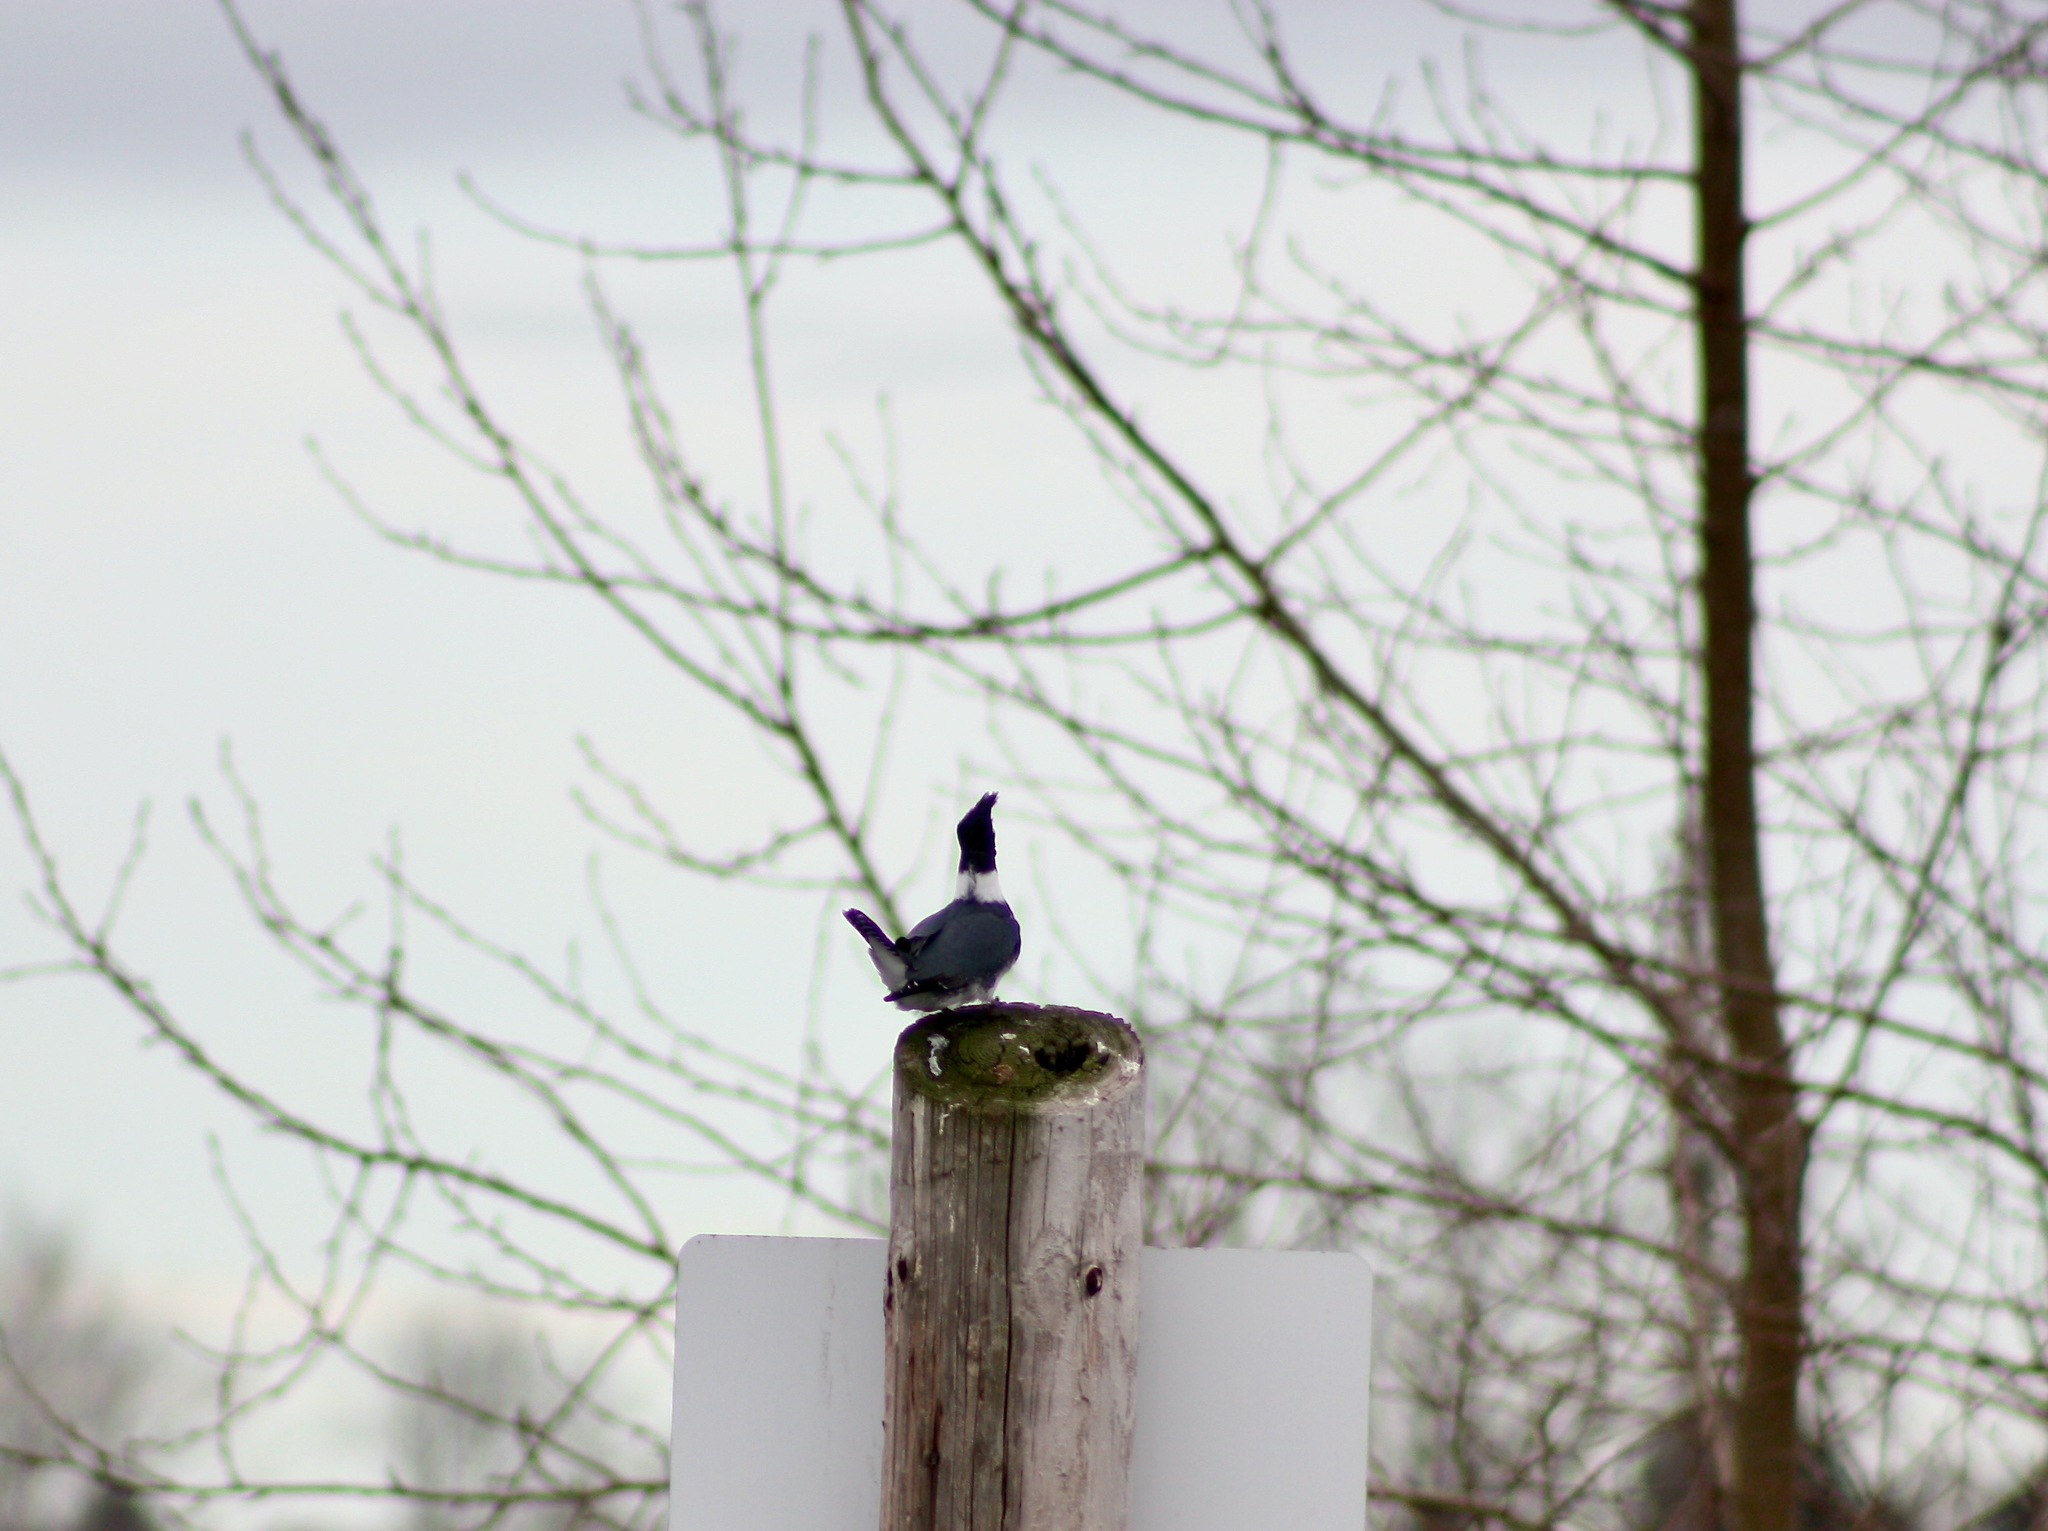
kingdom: Animalia
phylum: Chordata
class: Aves
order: Coraciiformes
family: Alcedinidae
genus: Megaceryle
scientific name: Megaceryle alcyon
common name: Belted kingfisher
